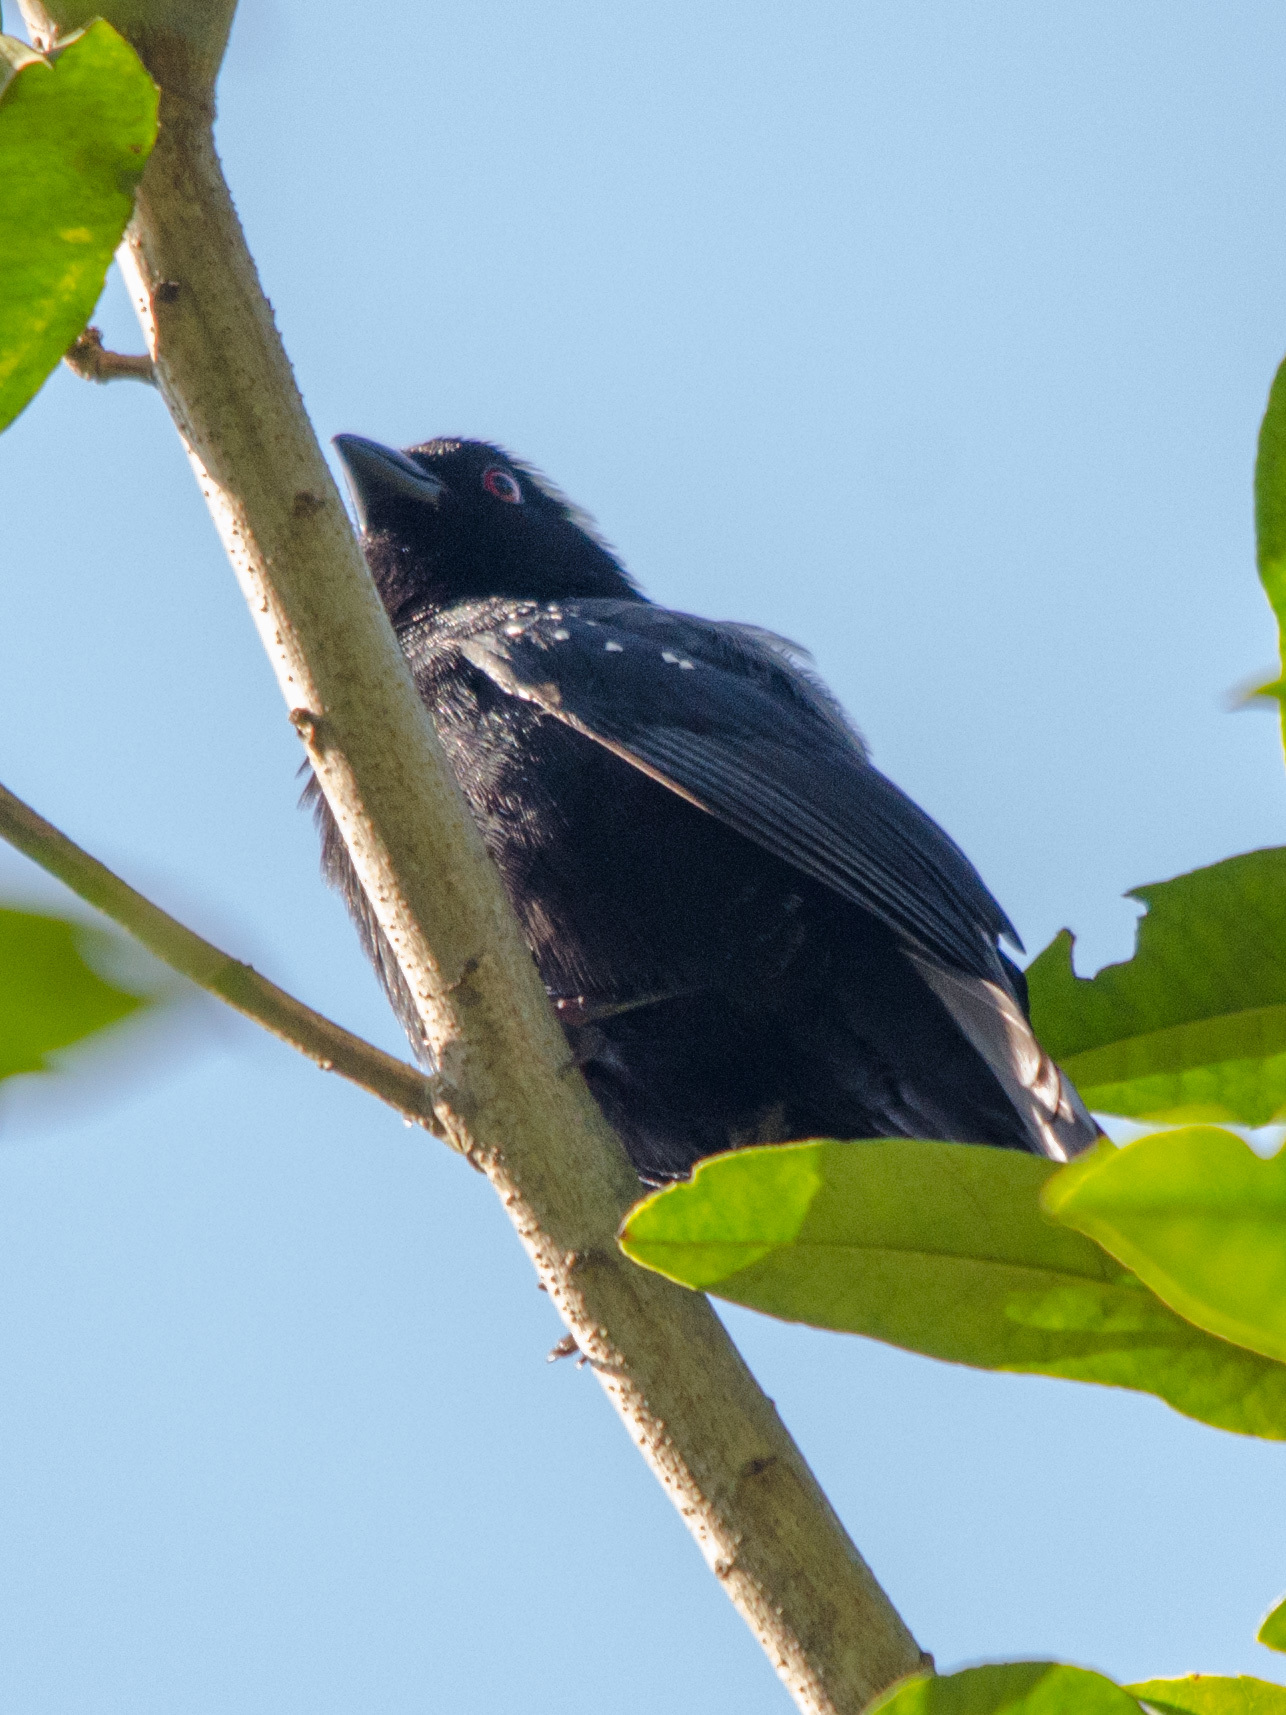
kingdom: Animalia
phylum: Chordata
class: Aves
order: Passeriformes
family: Estrildidae
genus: Nigrita
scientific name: Nigrita canicapillus
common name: Grey-headed nigrita
